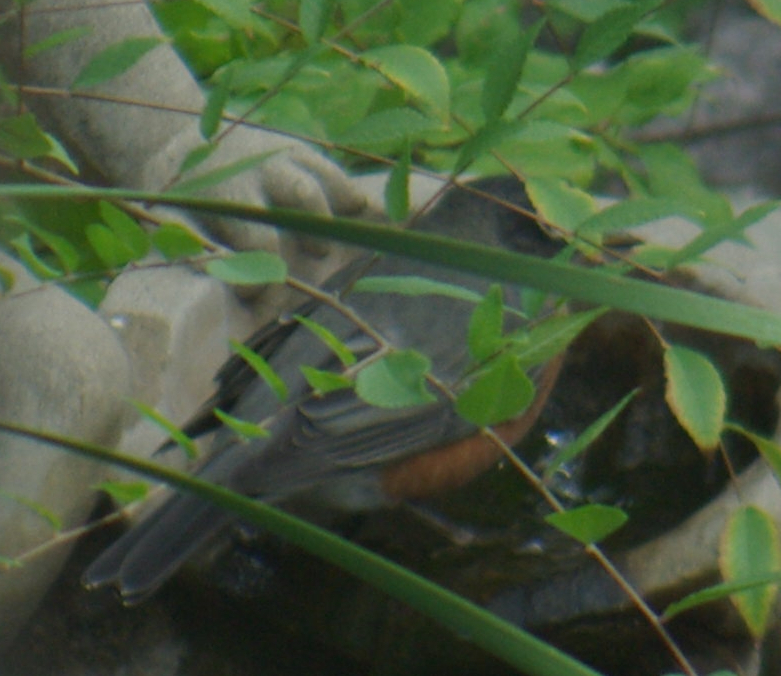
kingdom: Animalia
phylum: Chordata
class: Aves
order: Passeriformes
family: Turdidae
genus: Turdus
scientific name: Turdus migratorius
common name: American robin
